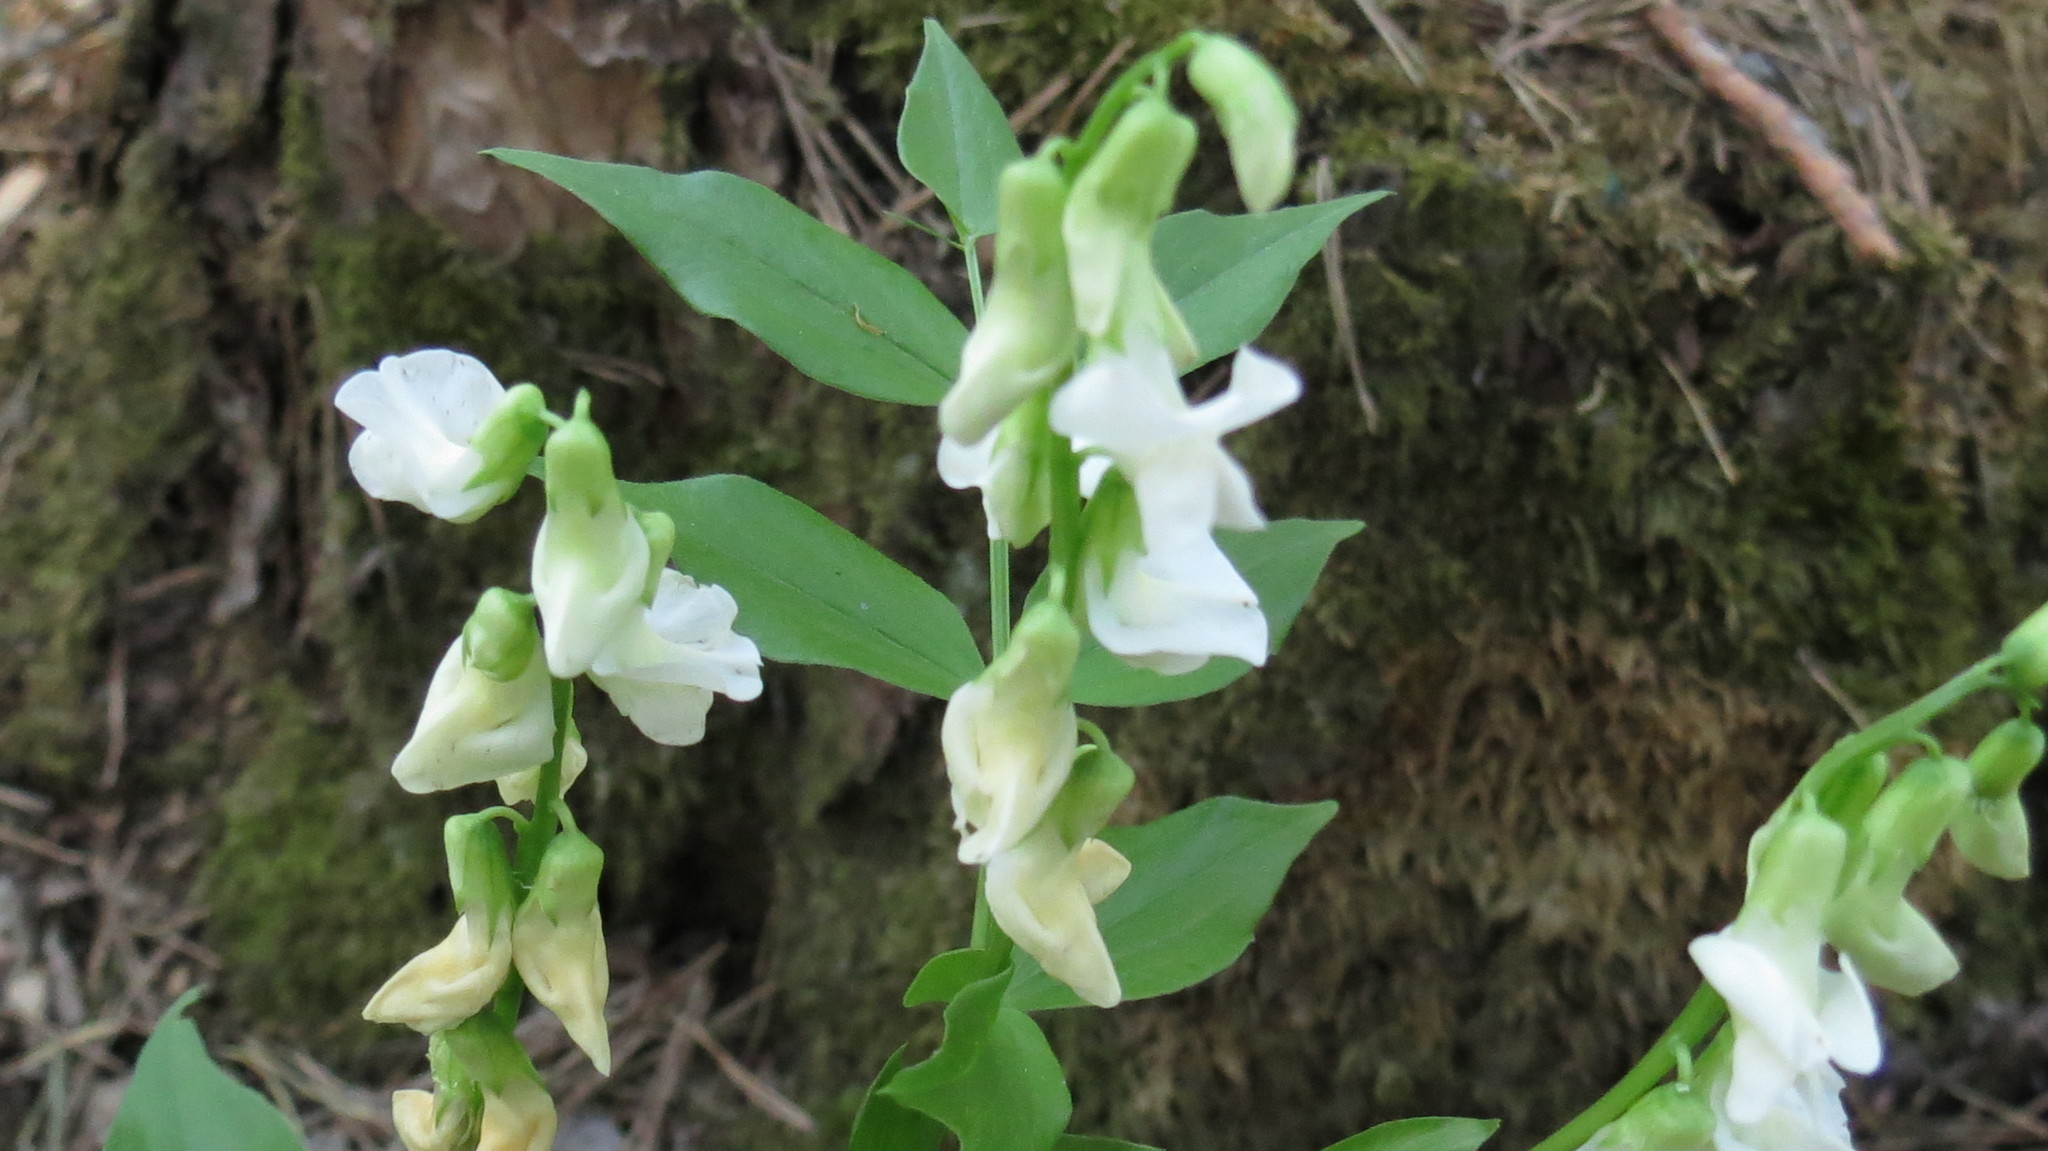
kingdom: Plantae
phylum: Tracheophyta
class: Magnoliopsida
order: Fabales
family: Fabaceae
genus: Lathyrus
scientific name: Lathyrus vernus
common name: Spring pea
